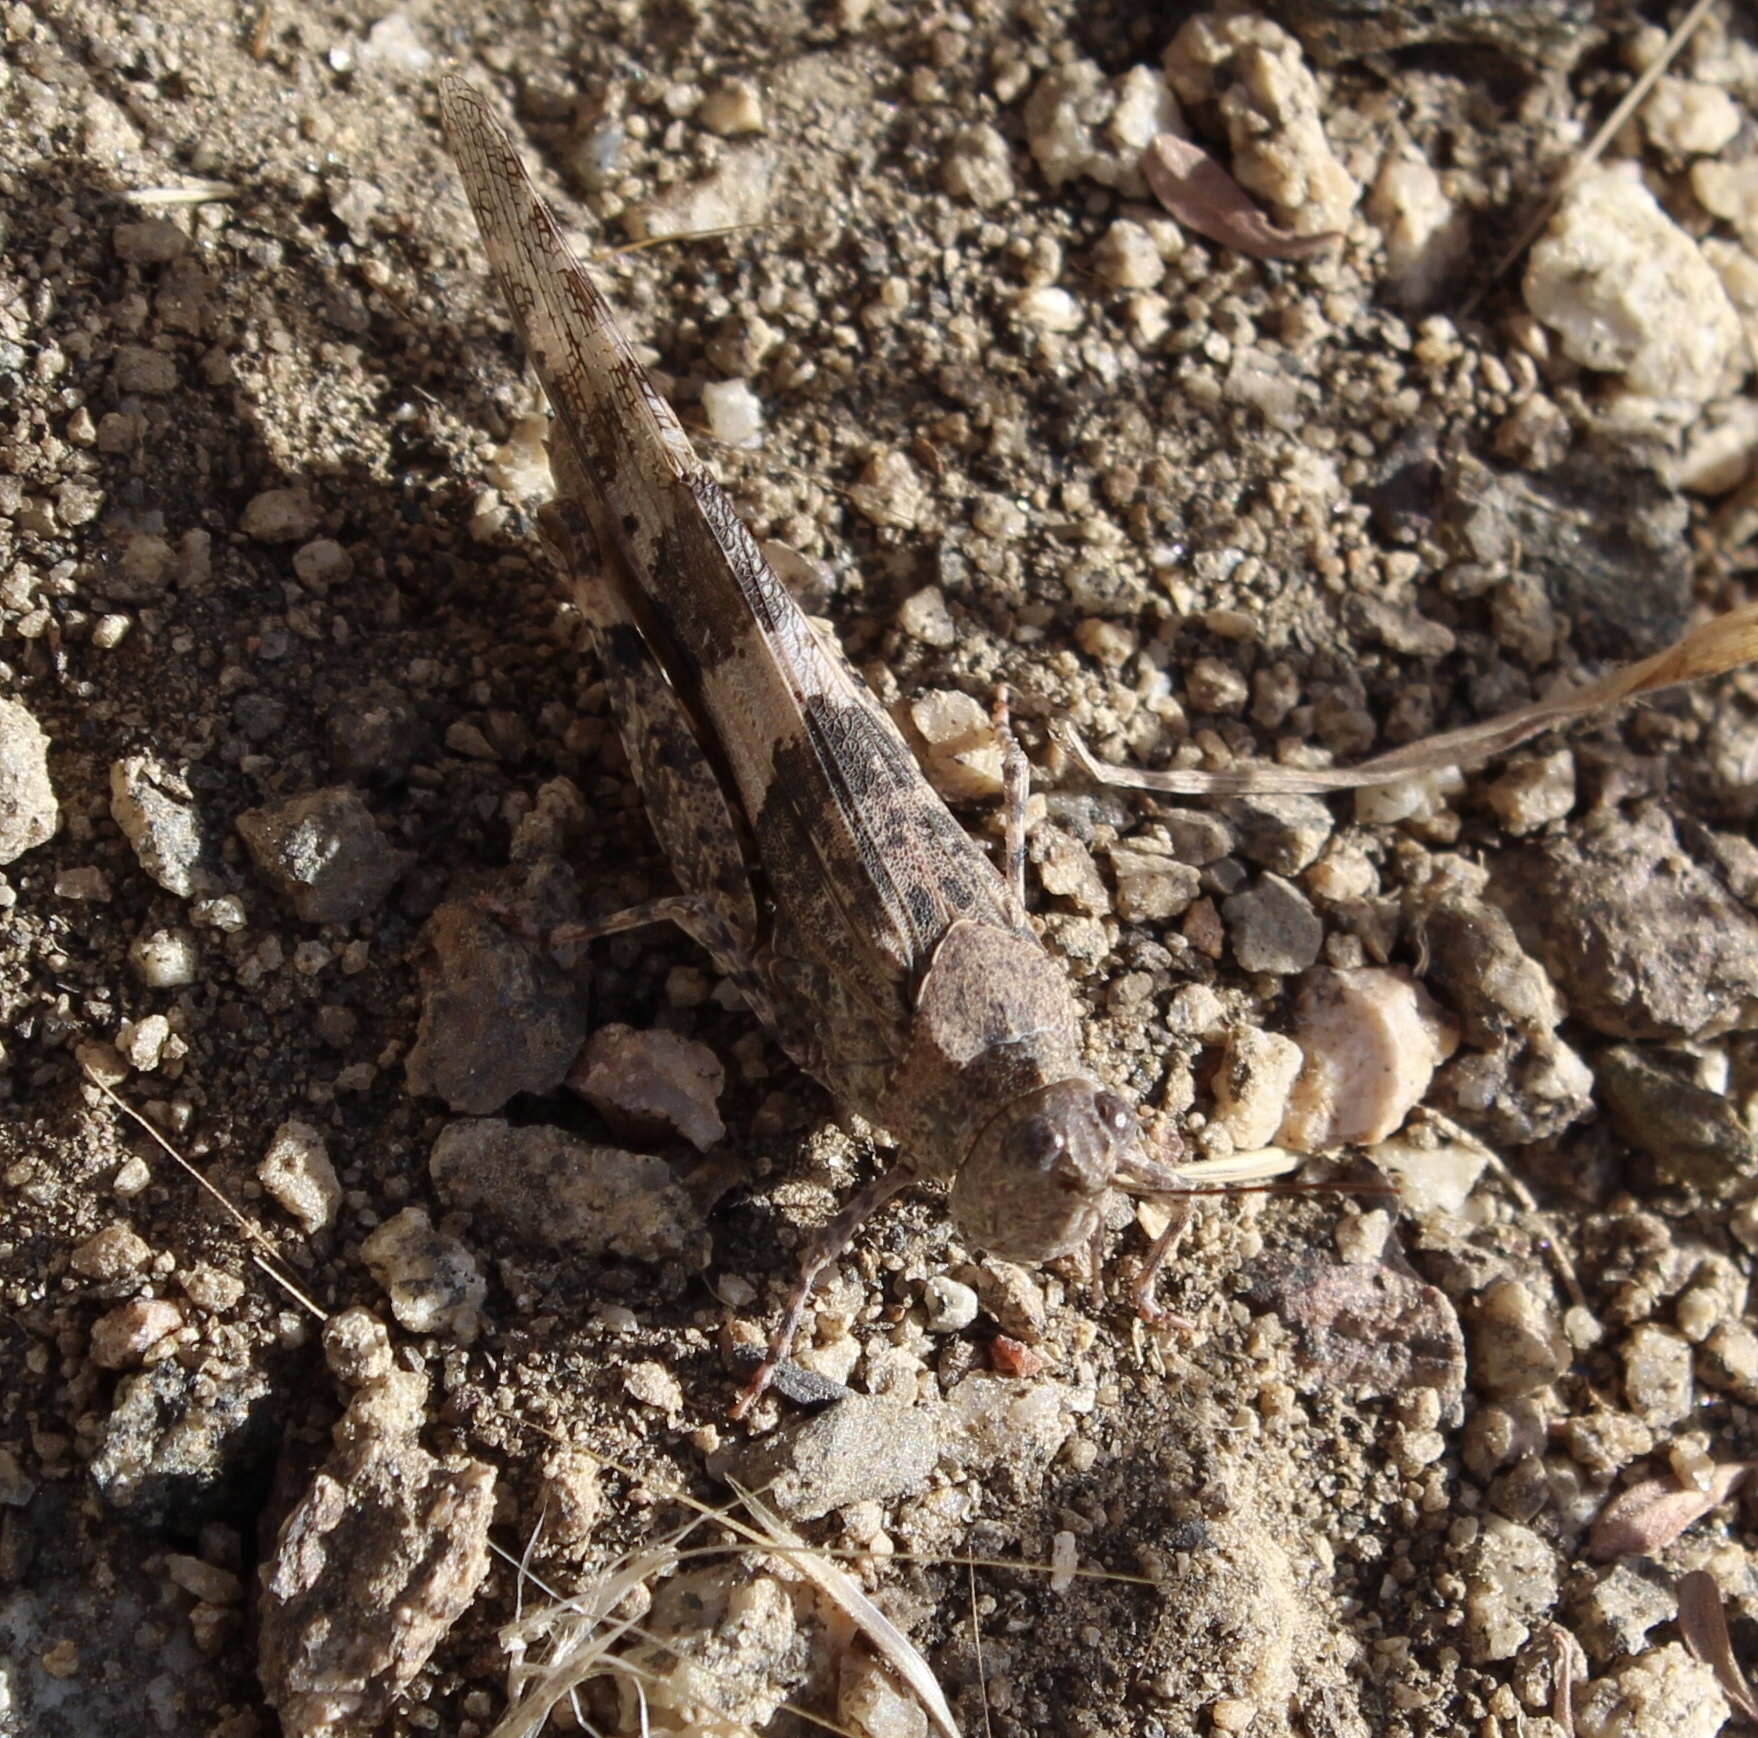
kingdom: Animalia
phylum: Arthropoda
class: Insecta
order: Orthoptera
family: Acrididae
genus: Trimerotropis
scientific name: Trimerotropis pallidipennis
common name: Pallid-winged grasshopper
